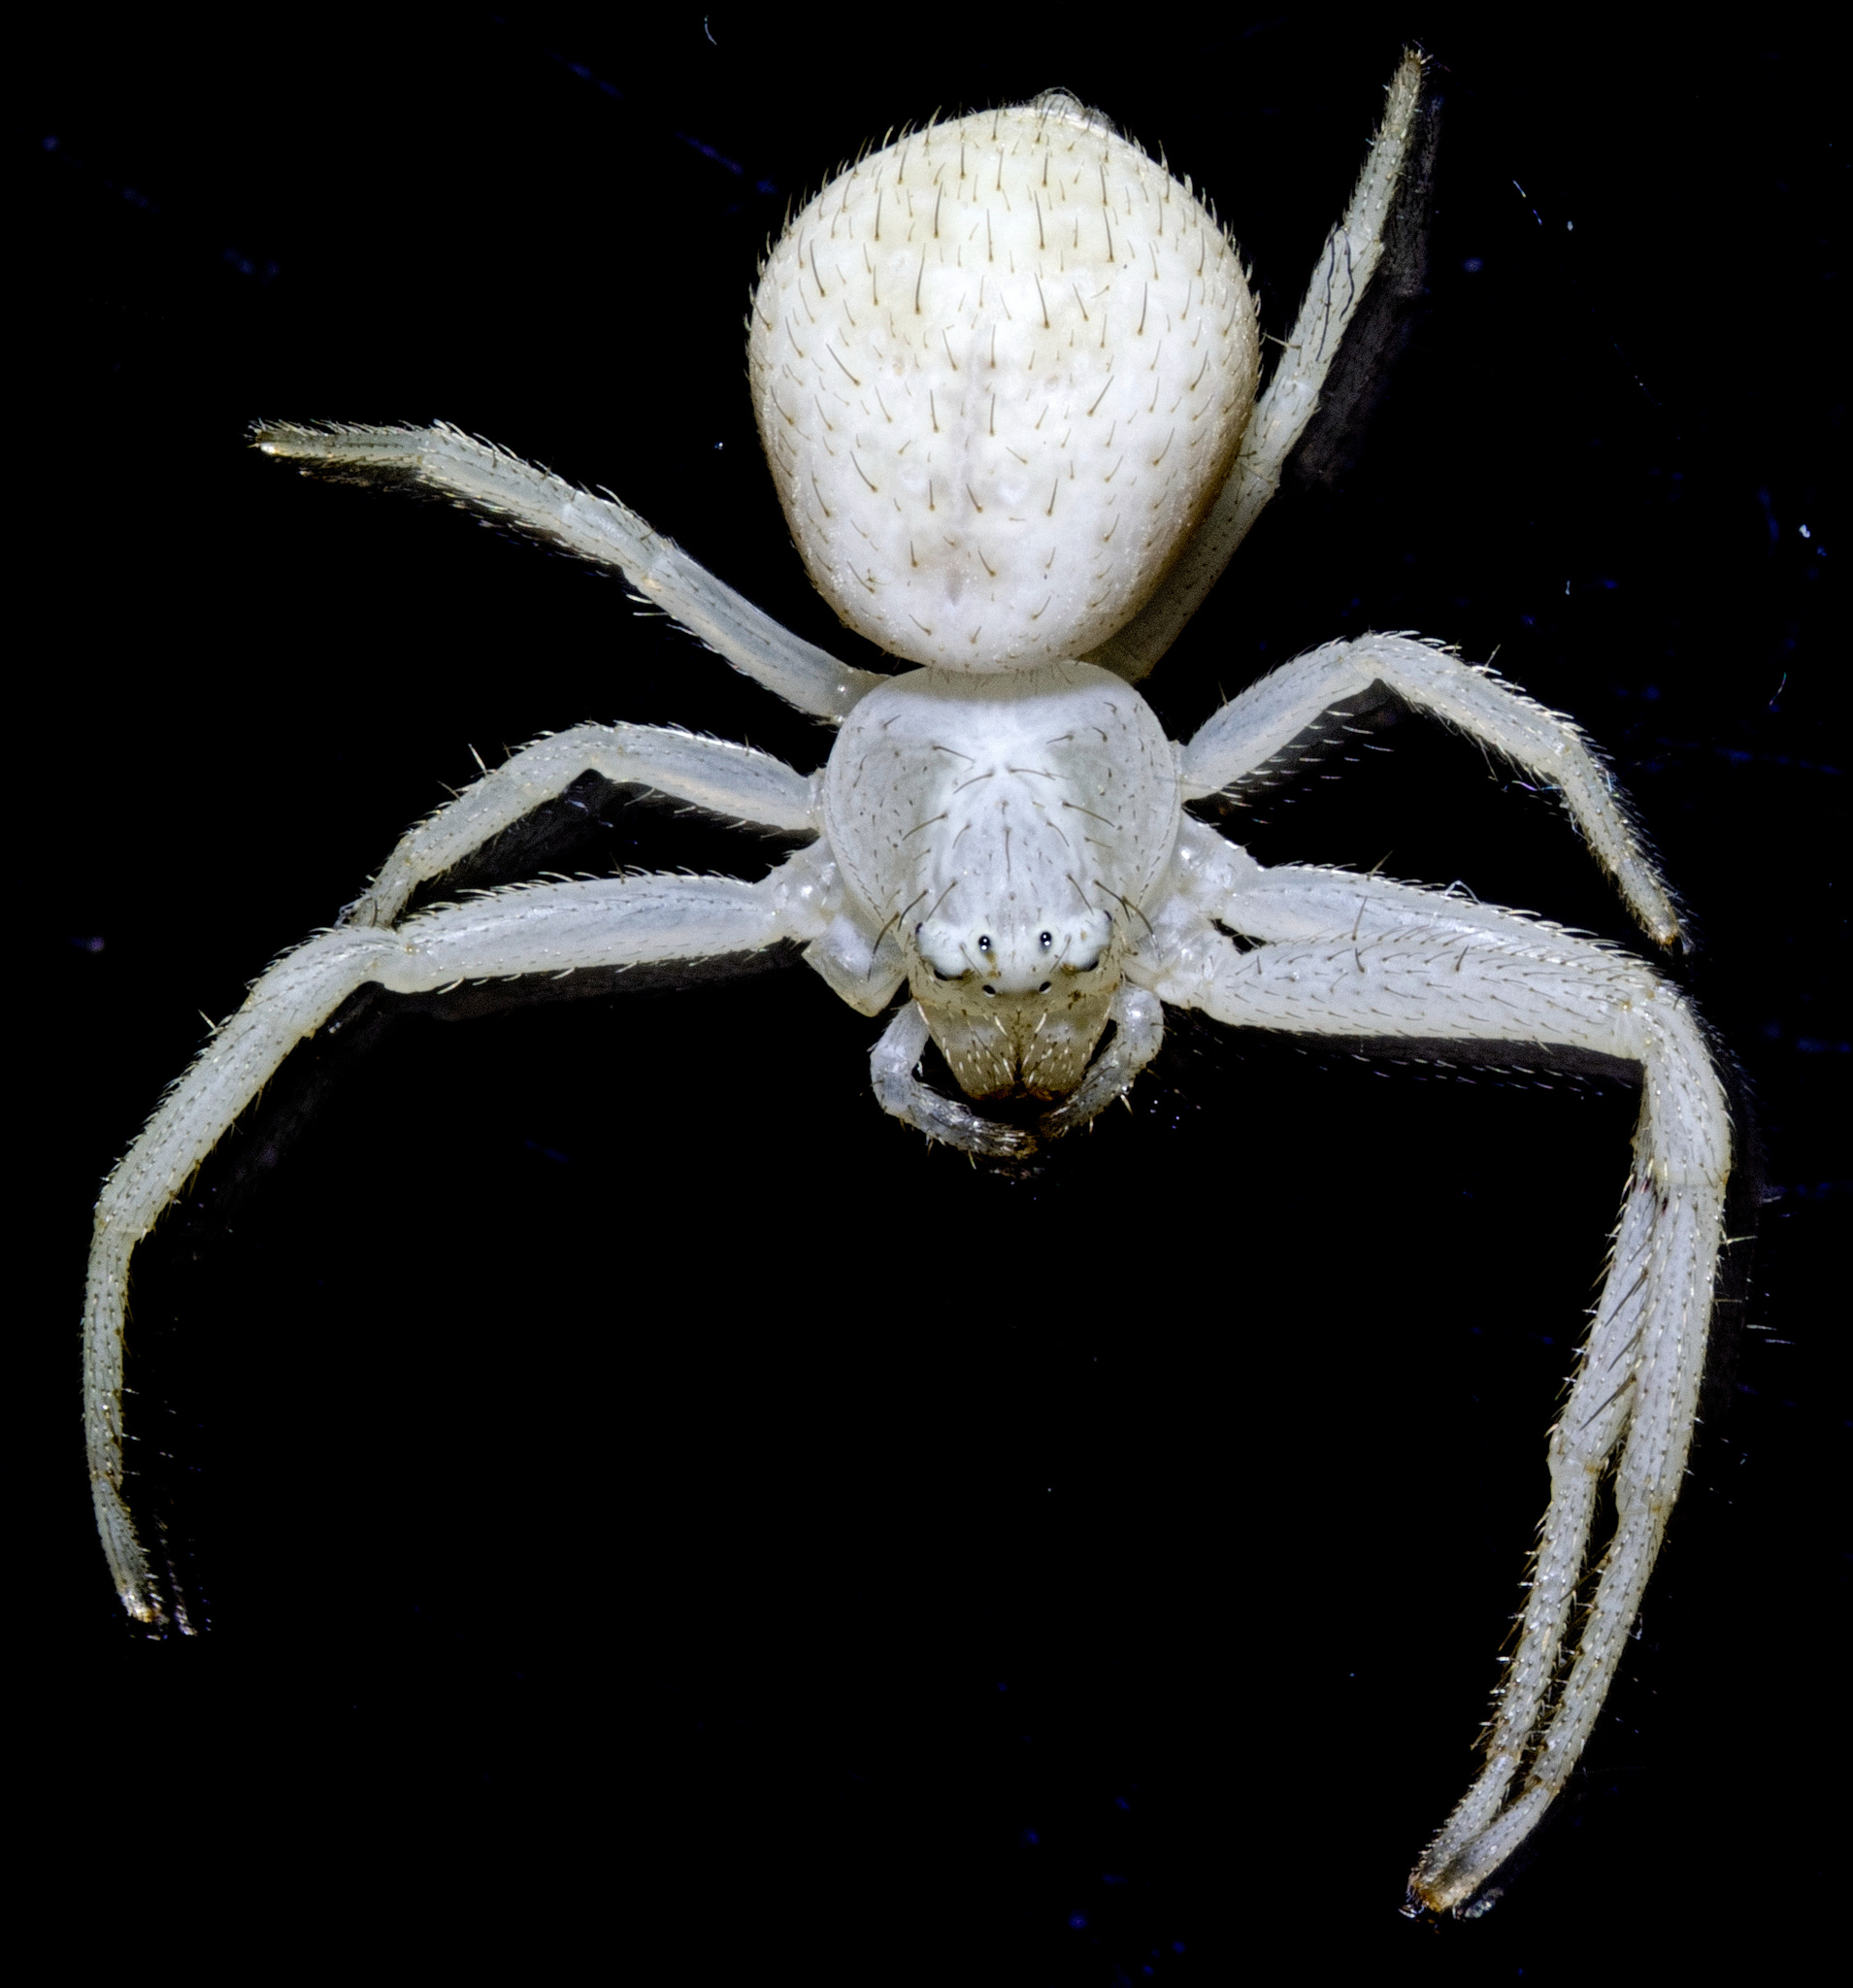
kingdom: Animalia
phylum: Arthropoda
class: Arachnida
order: Araneae
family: Thomisidae
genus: Misumena
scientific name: Misumena vatia
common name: Goldenrod crab spider
